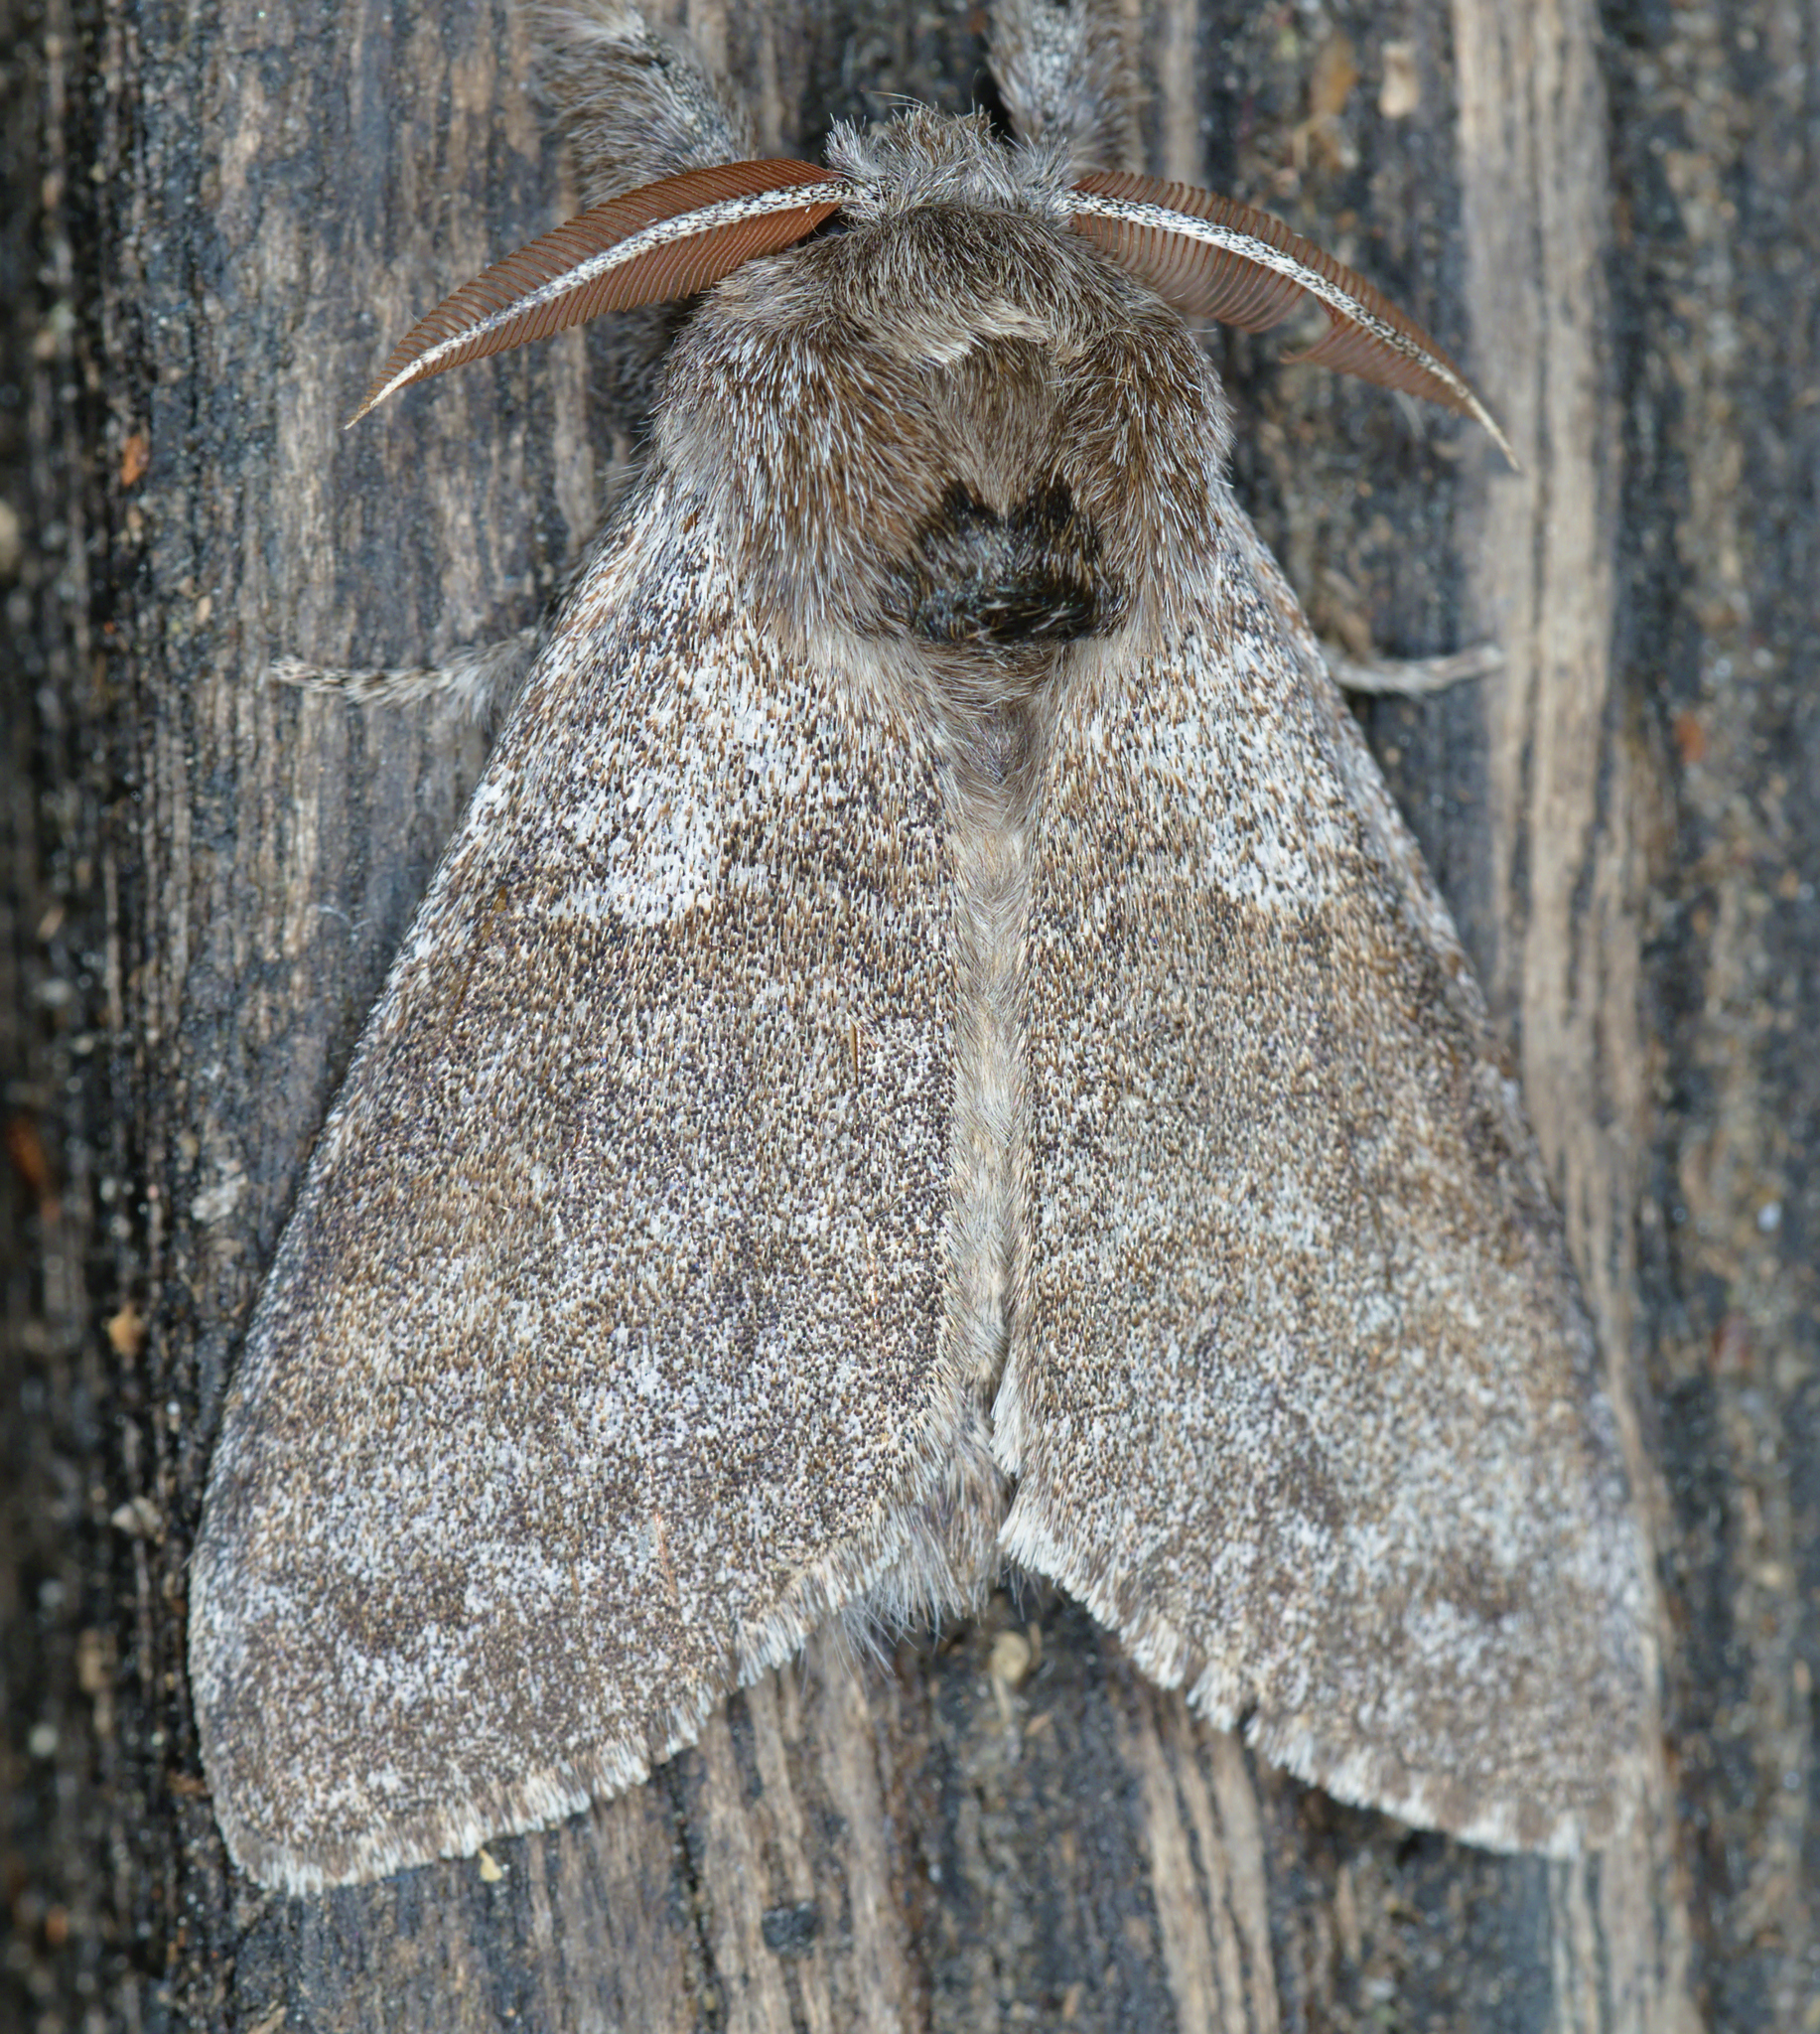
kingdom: Animalia
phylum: Arthropoda
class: Insecta
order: Lepidoptera
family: Erebidae
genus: Calliteara
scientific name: Calliteara pudibunda
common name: Pale tussock
